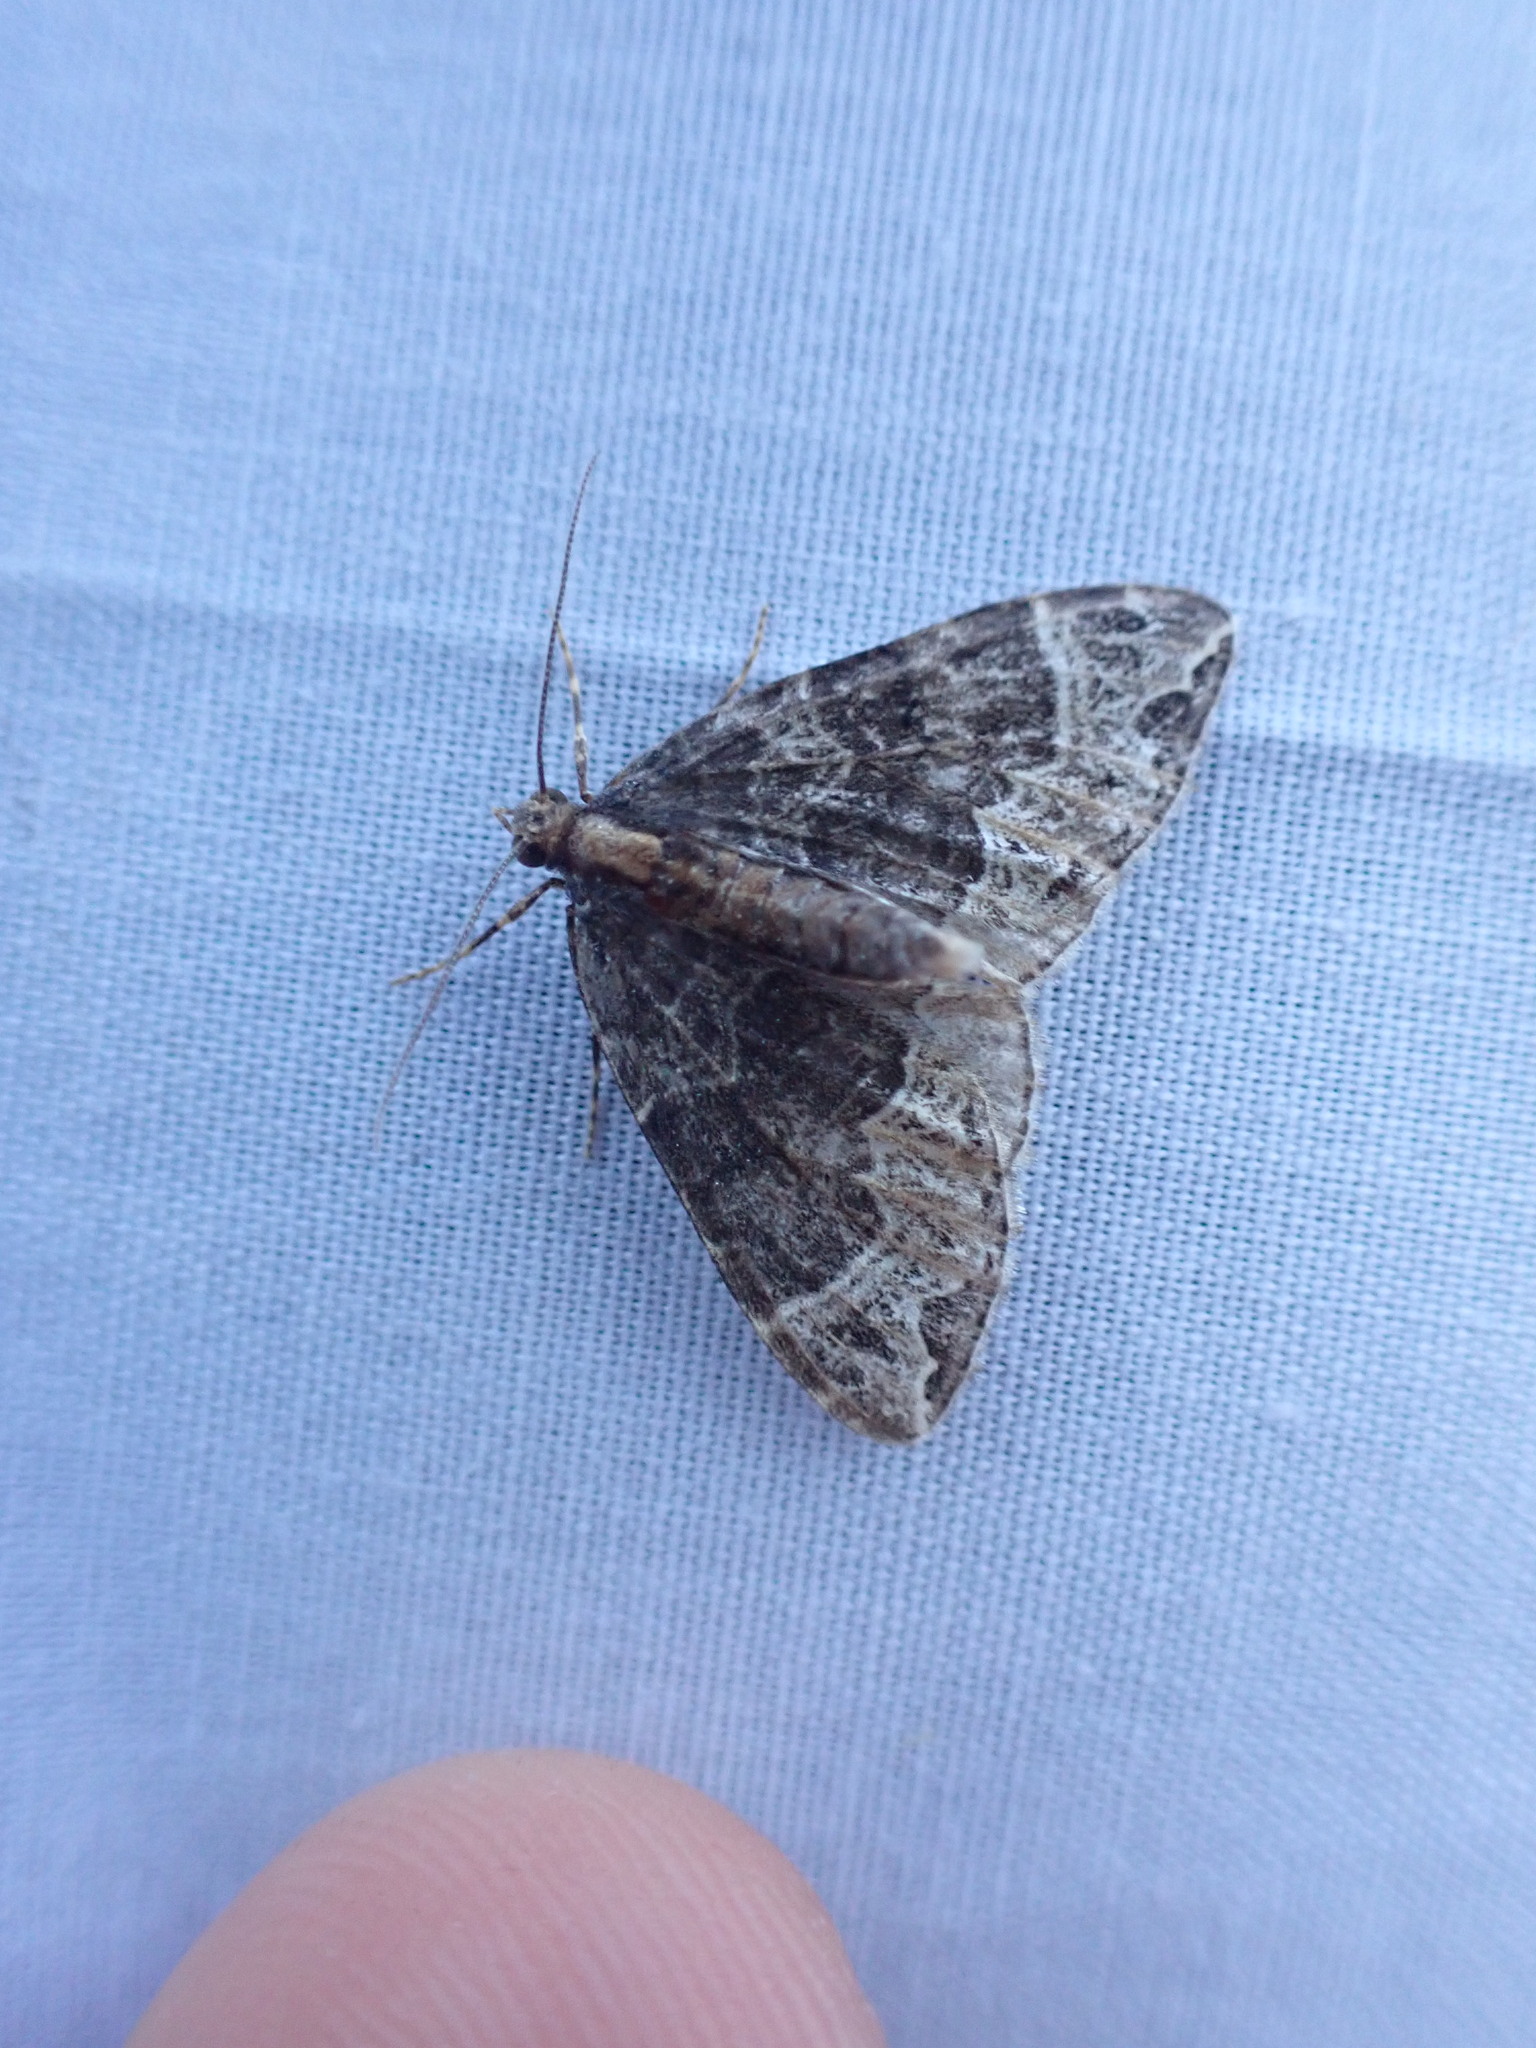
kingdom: Animalia
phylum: Arthropoda
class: Insecta
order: Lepidoptera
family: Geometridae
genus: Ecliptopera
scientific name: Ecliptopera silaceata
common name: Small phoenix
